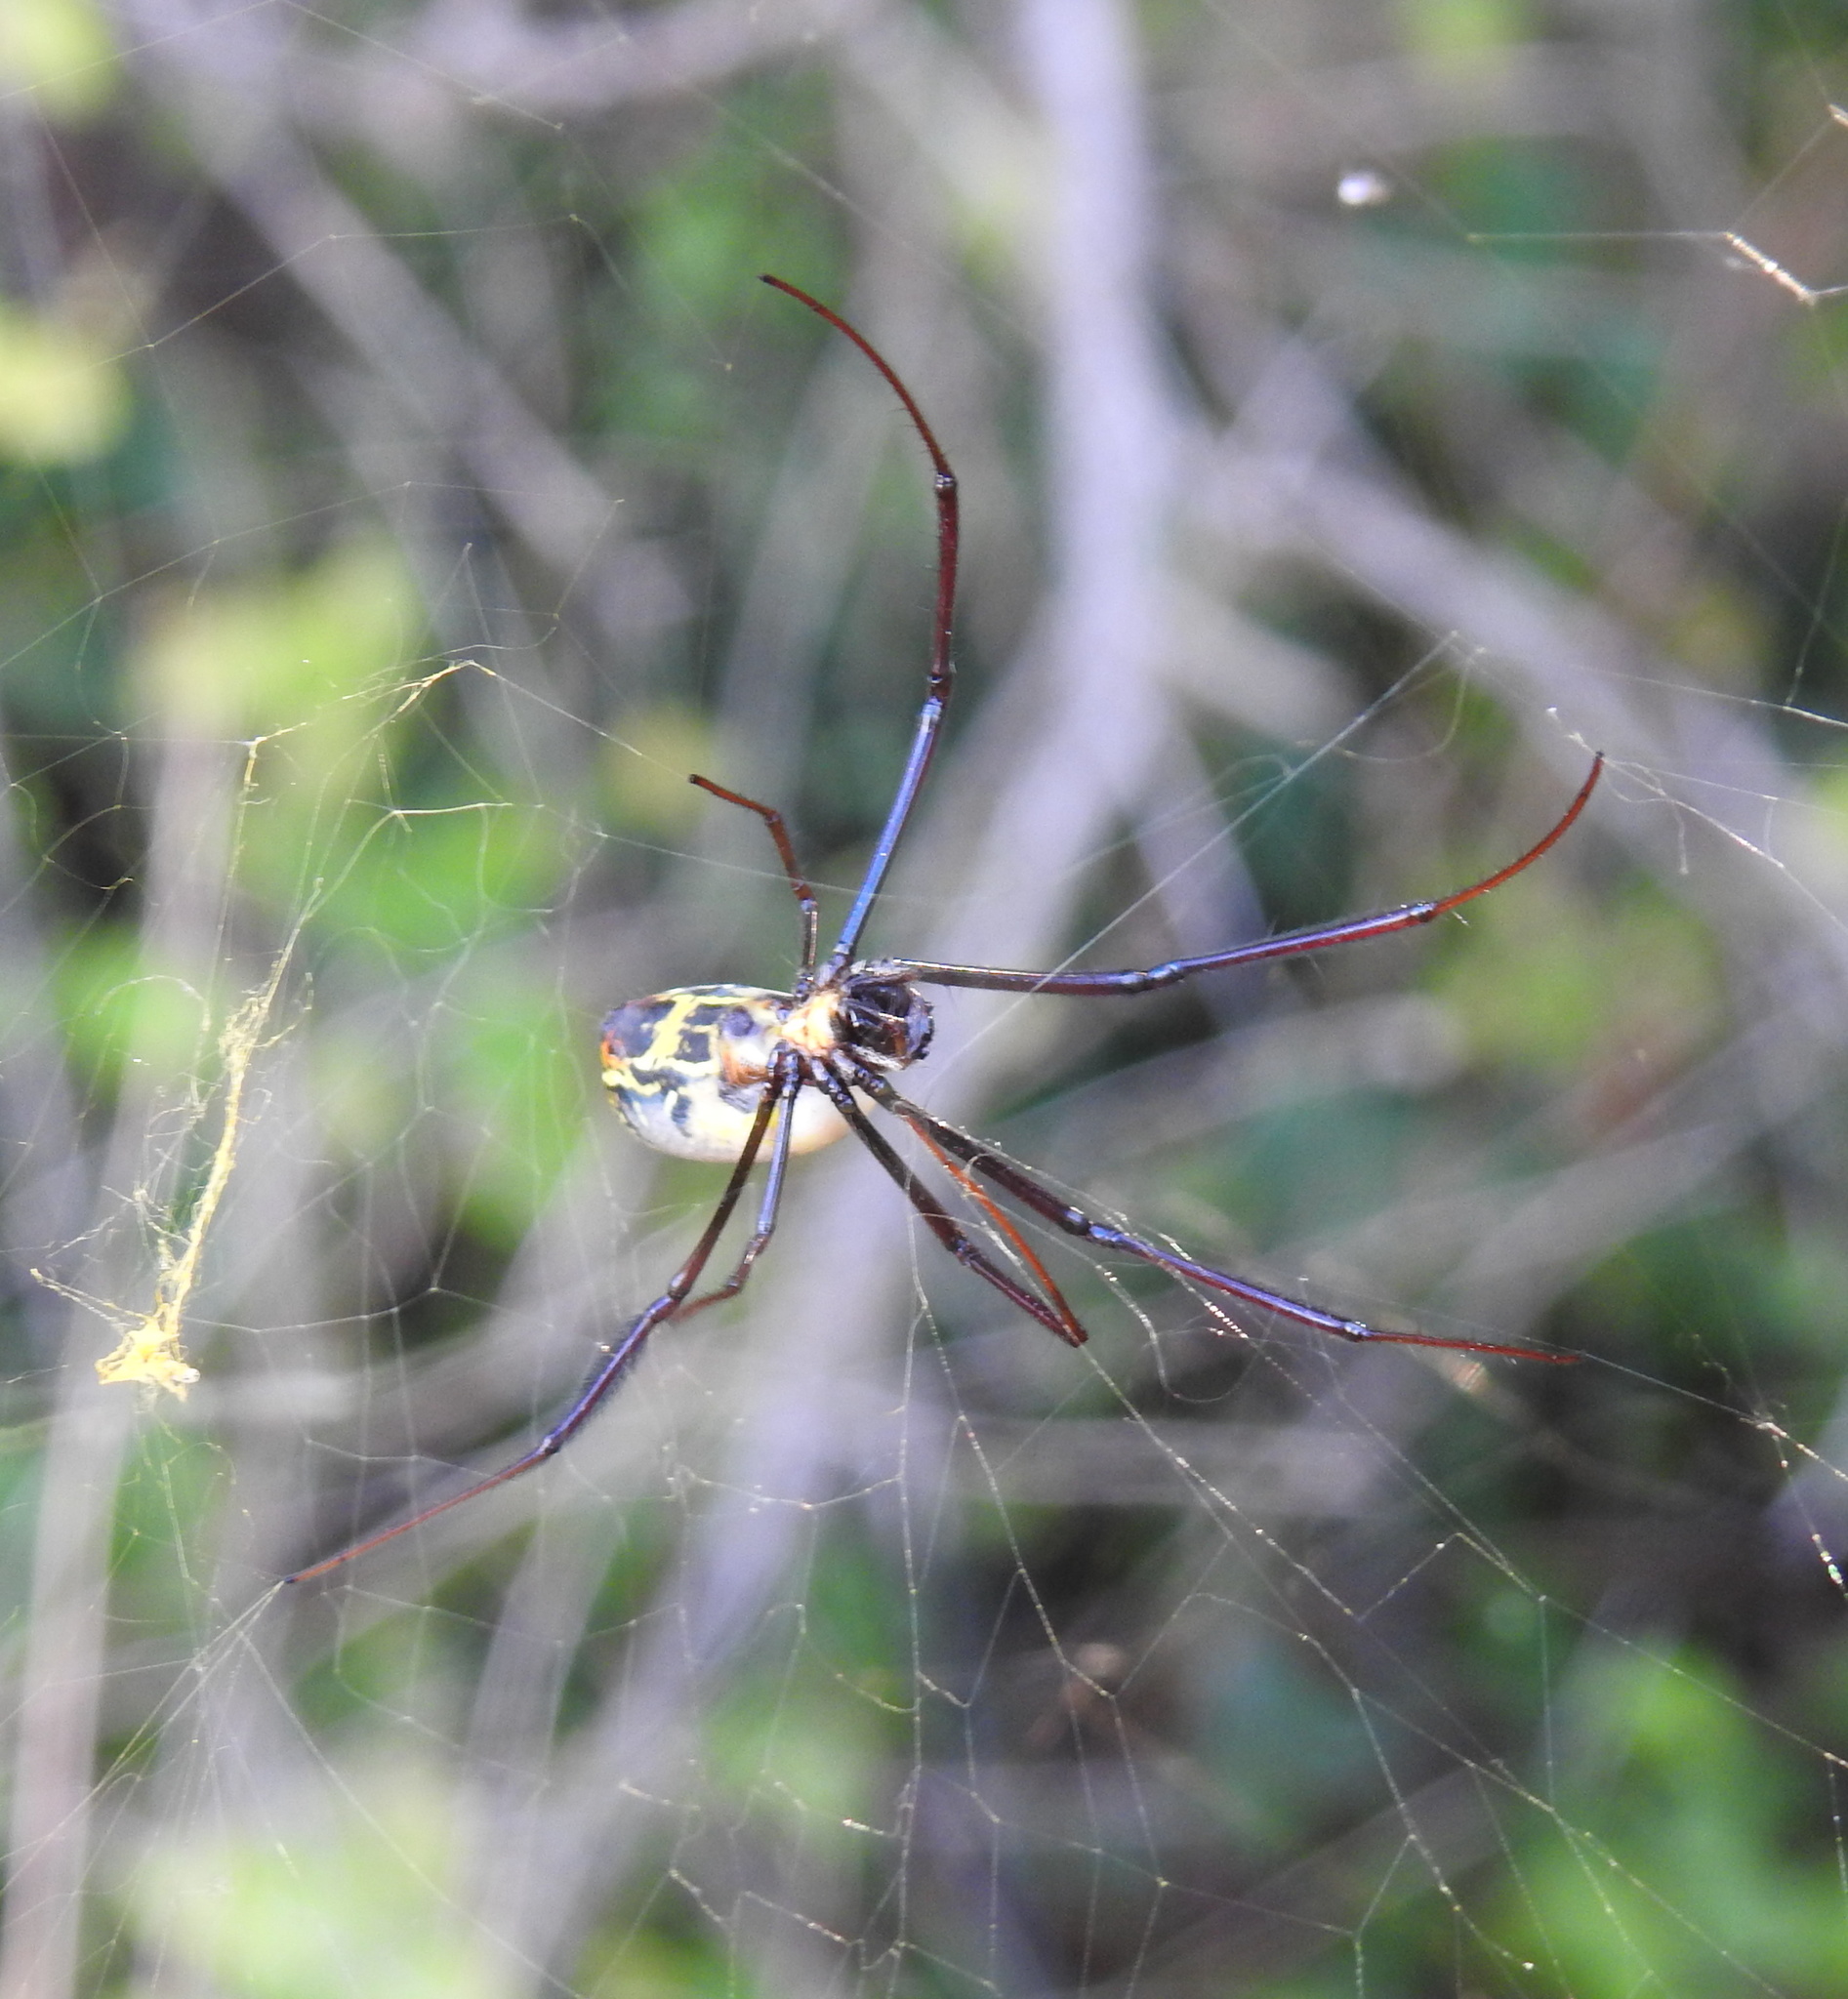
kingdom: Animalia
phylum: Arthropoda
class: Arachnida
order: Araneae
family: Araneidae
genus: Trichonephila
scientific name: Trichonephila fenestrata
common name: Hairy golden orb weaver
